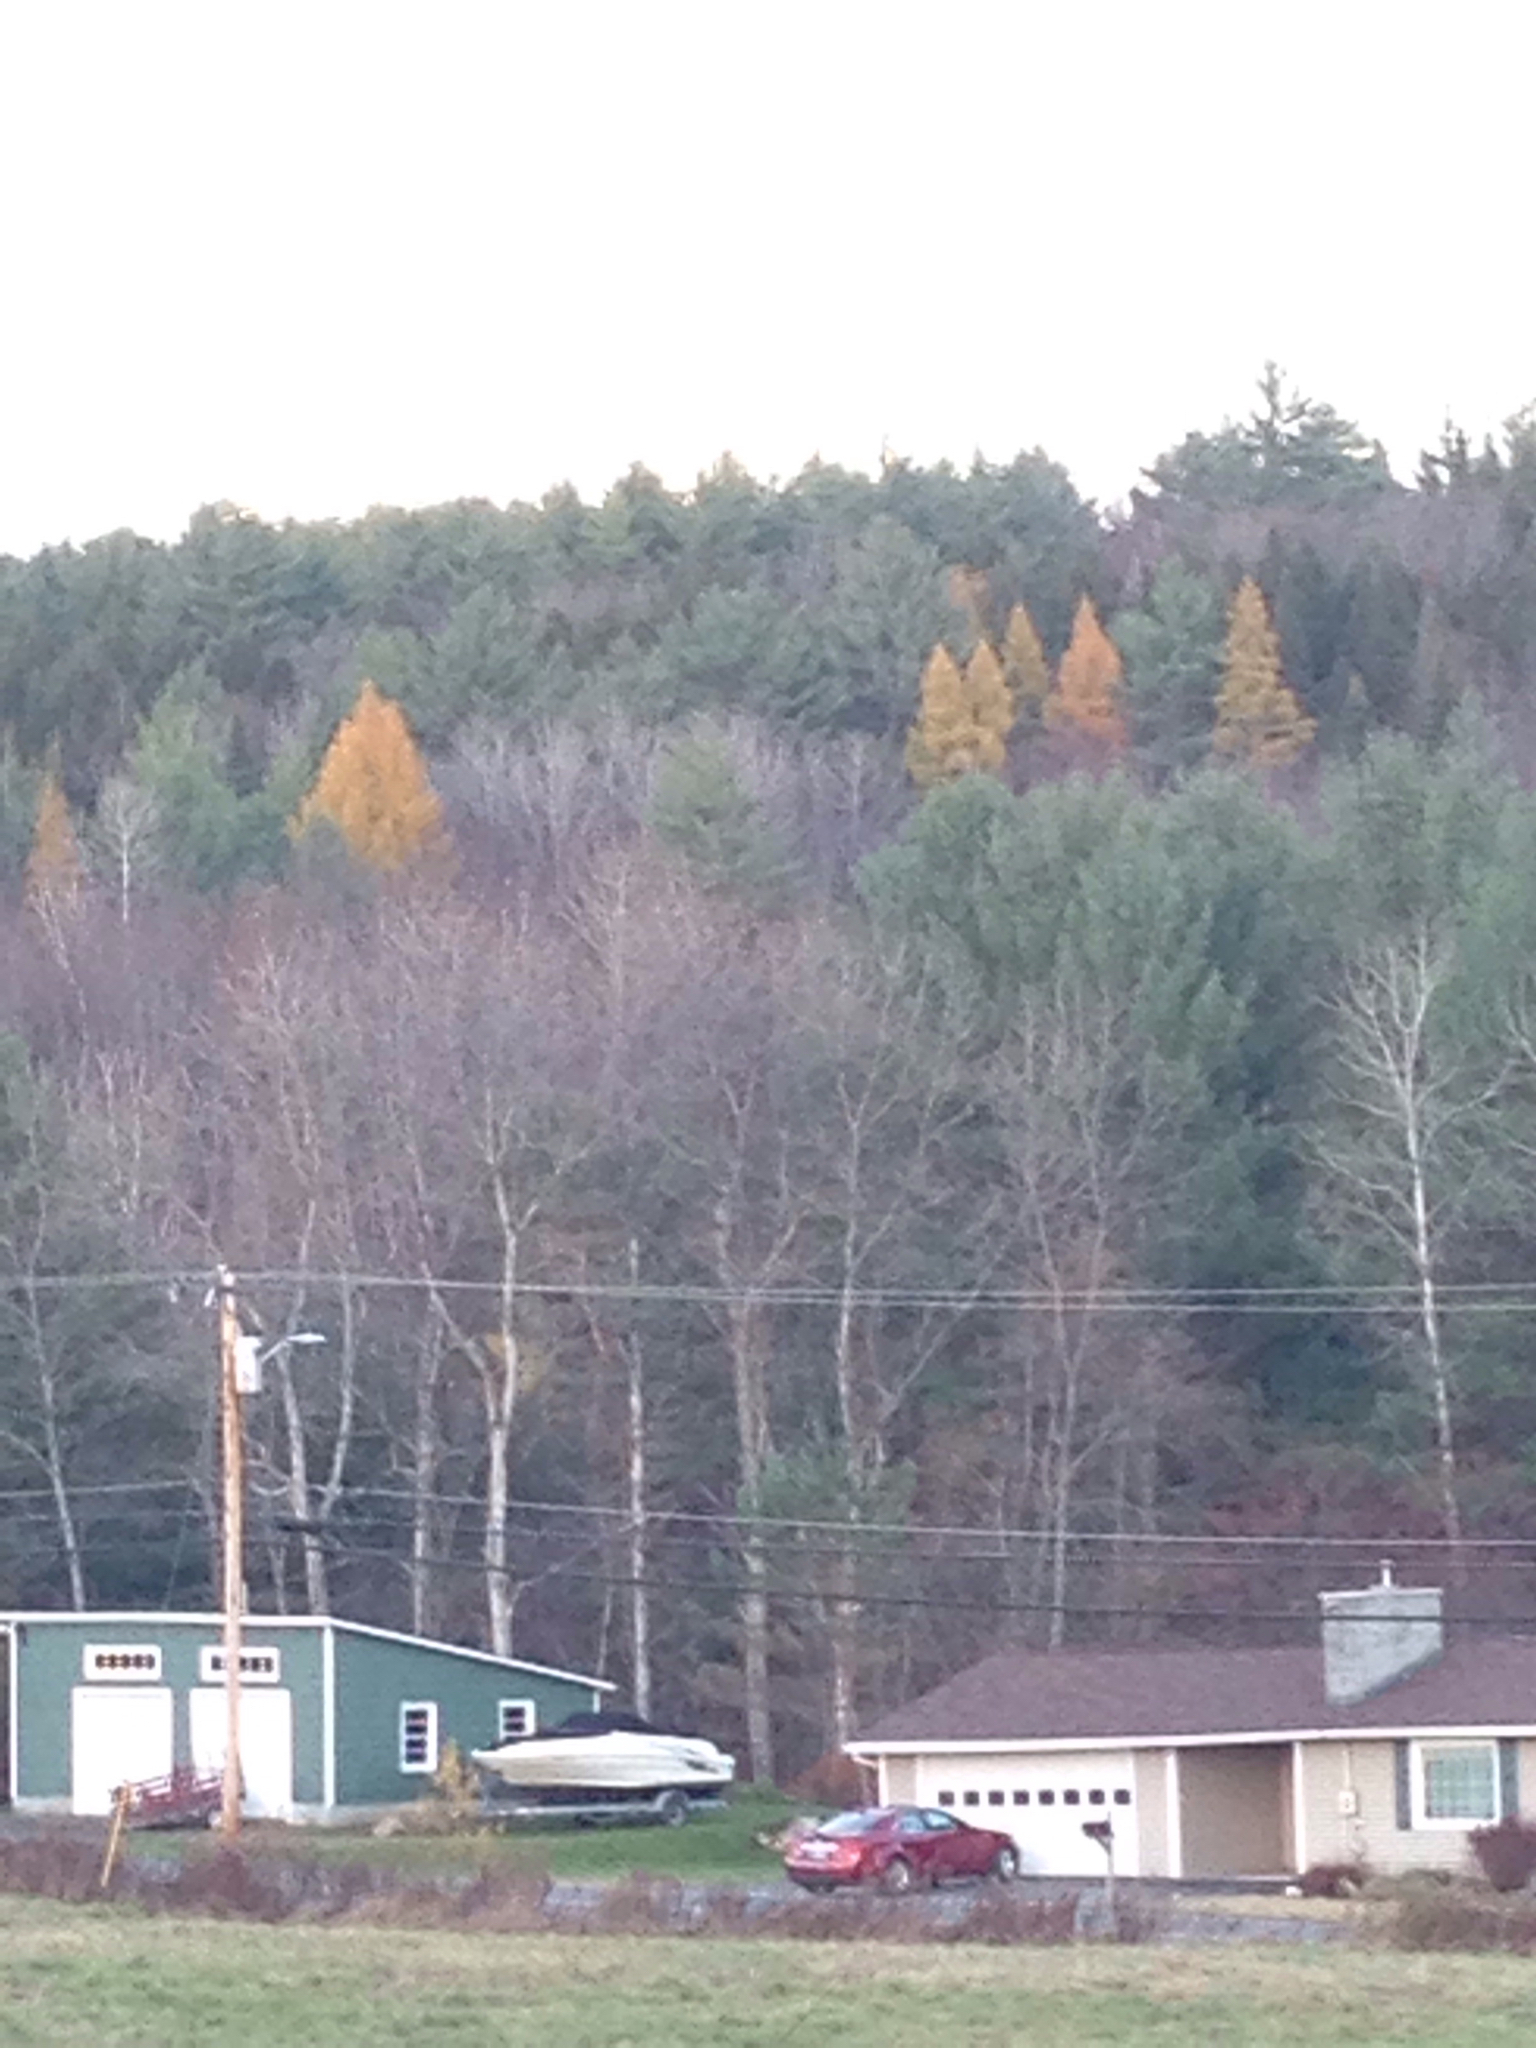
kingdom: Plantae
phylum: Tracheophyta
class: Pinopsida
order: Pinales
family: Pinaceae
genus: Larix
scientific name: Larix laricina
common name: American larch
